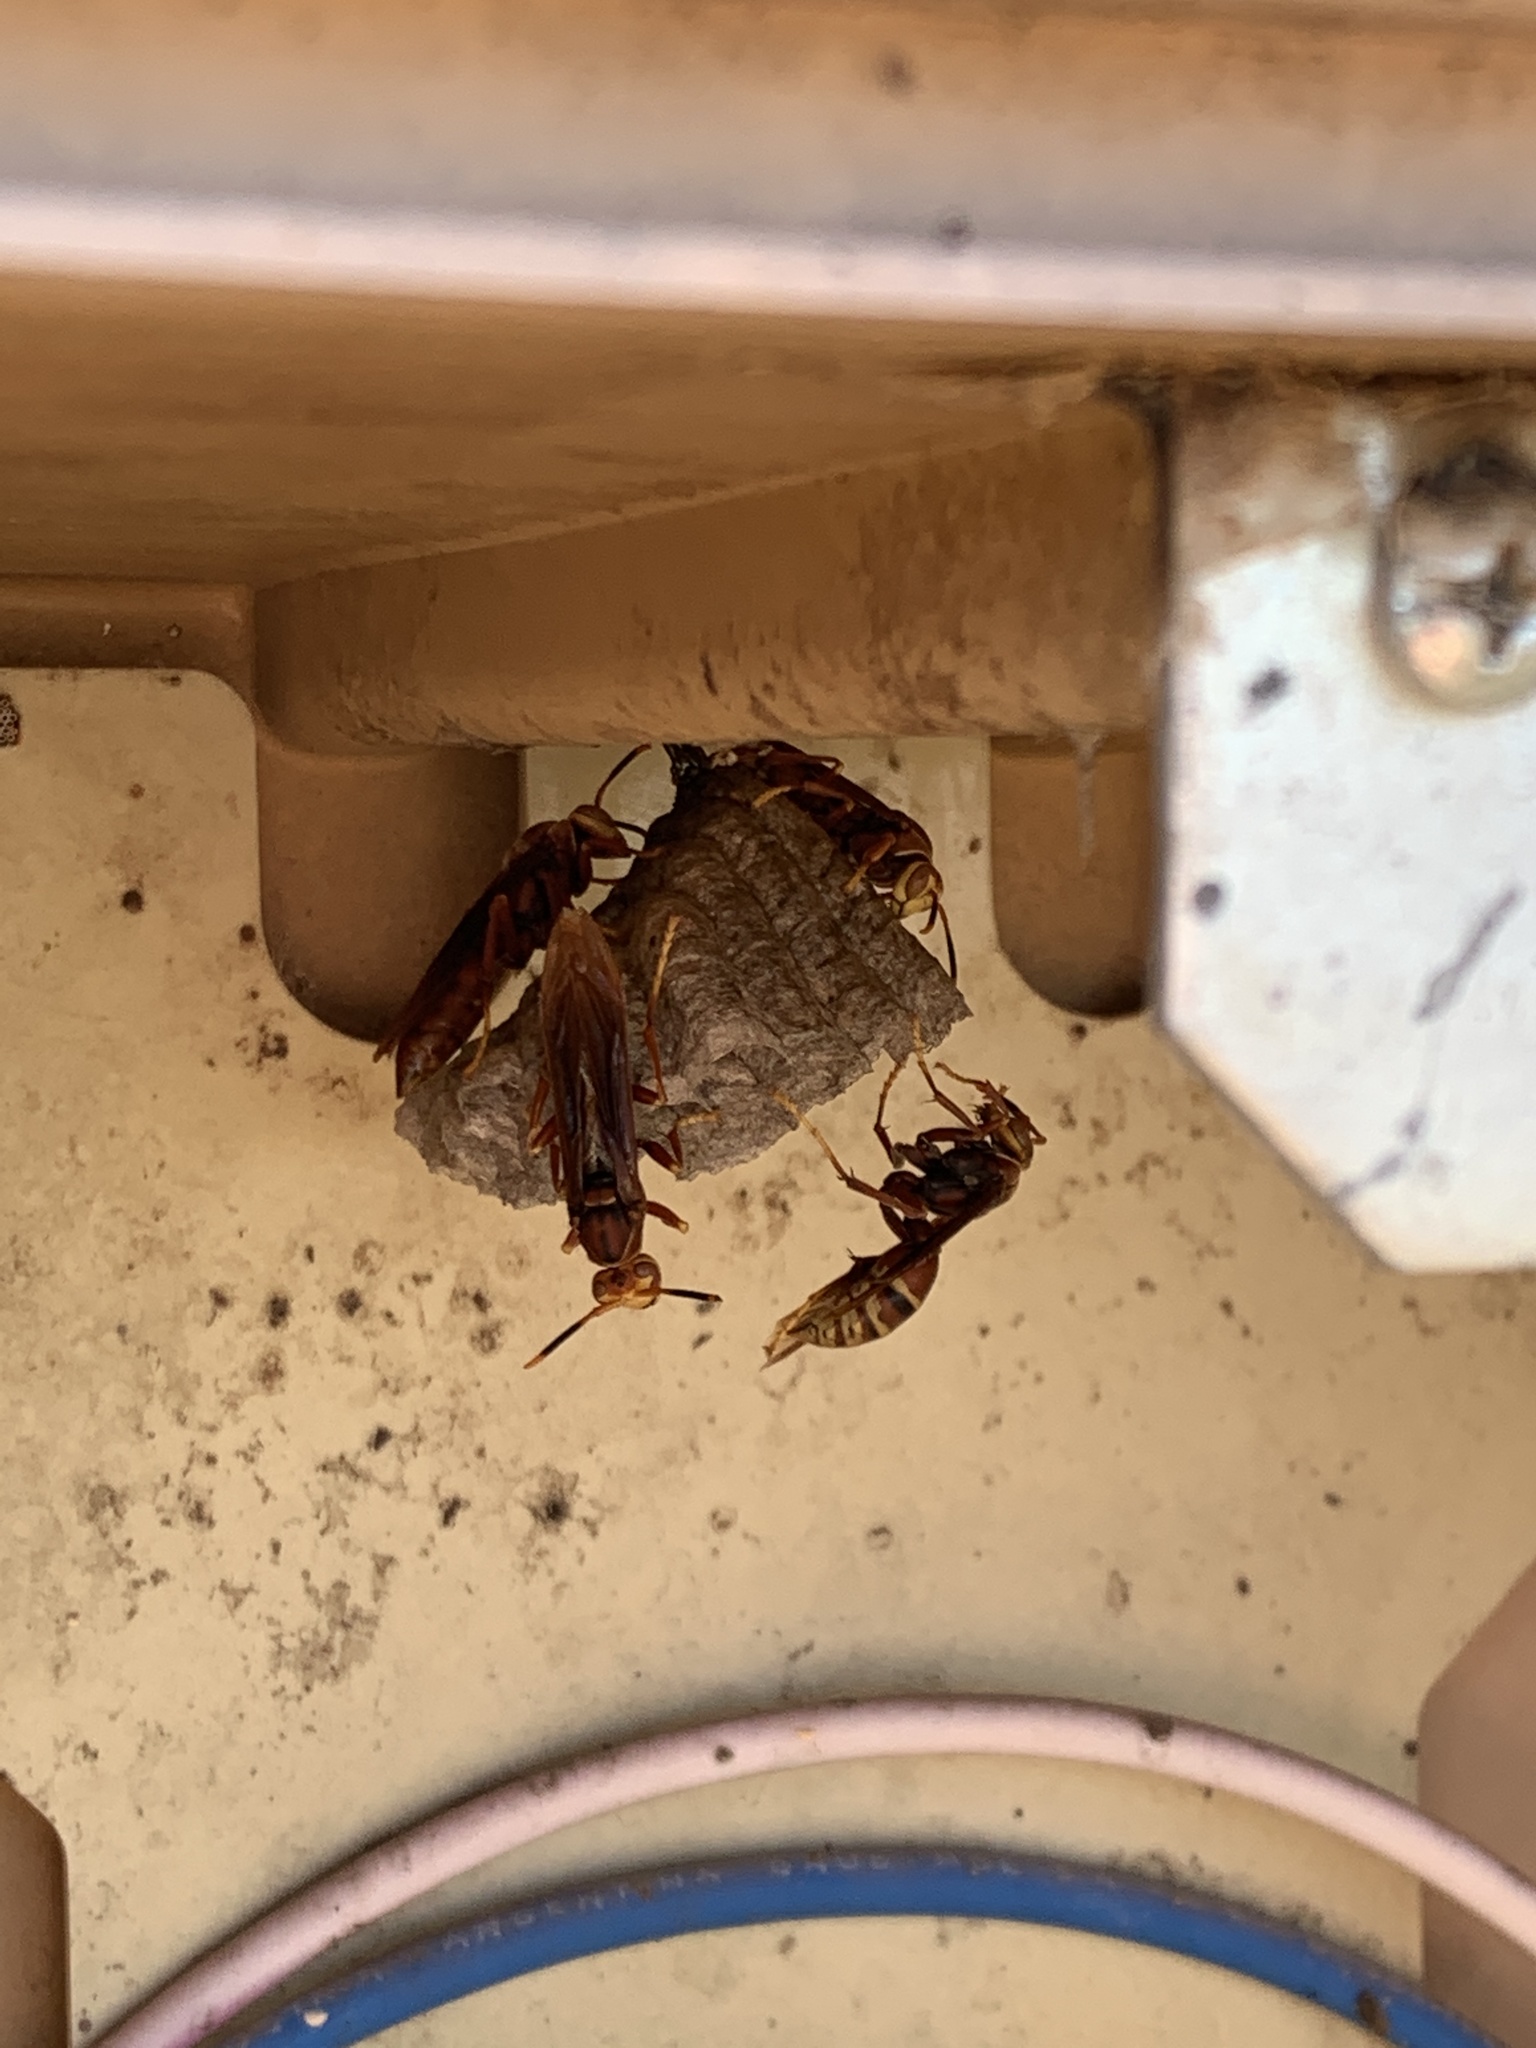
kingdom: Animalia
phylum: Arthropoda
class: Insecta
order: Hymenoptera
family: Eumenidae
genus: Polistes
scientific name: Polistes cavapyta
